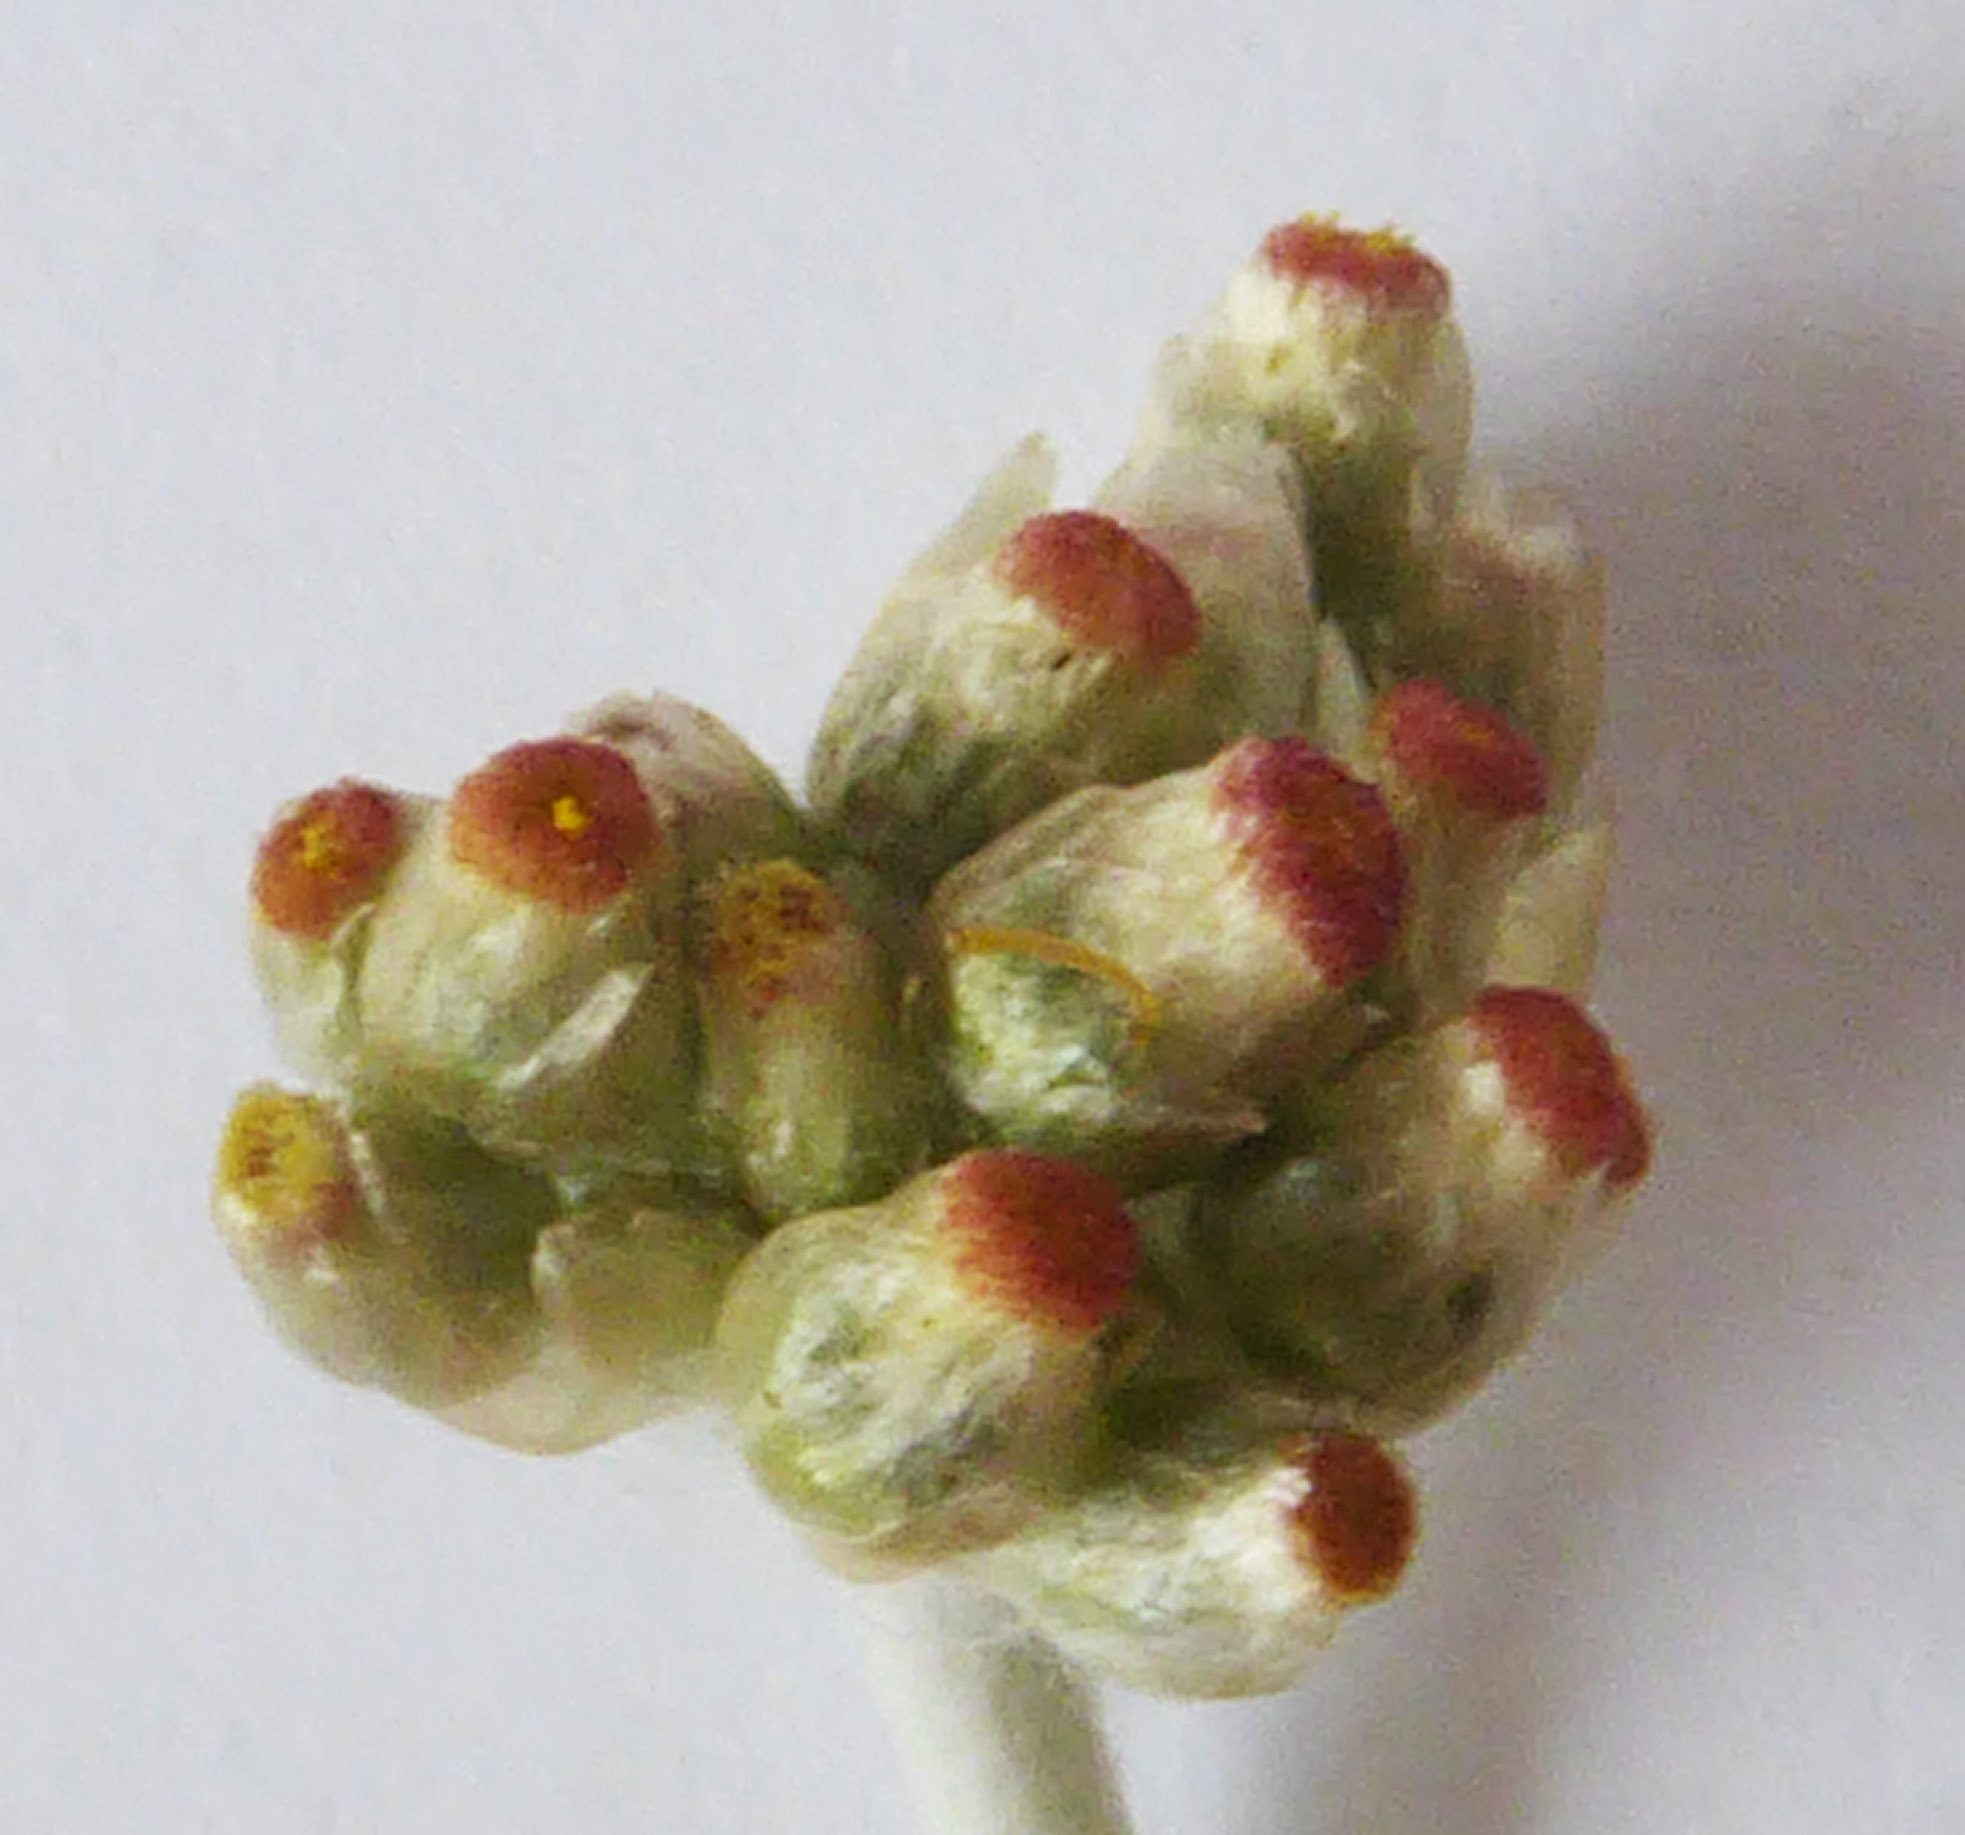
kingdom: Plantae
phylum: Tracheophyta
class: Magnoliopsida
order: Asterales
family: Asteraceae
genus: Helichrysum
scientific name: Helichrysum luteoalbum
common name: Daisy
